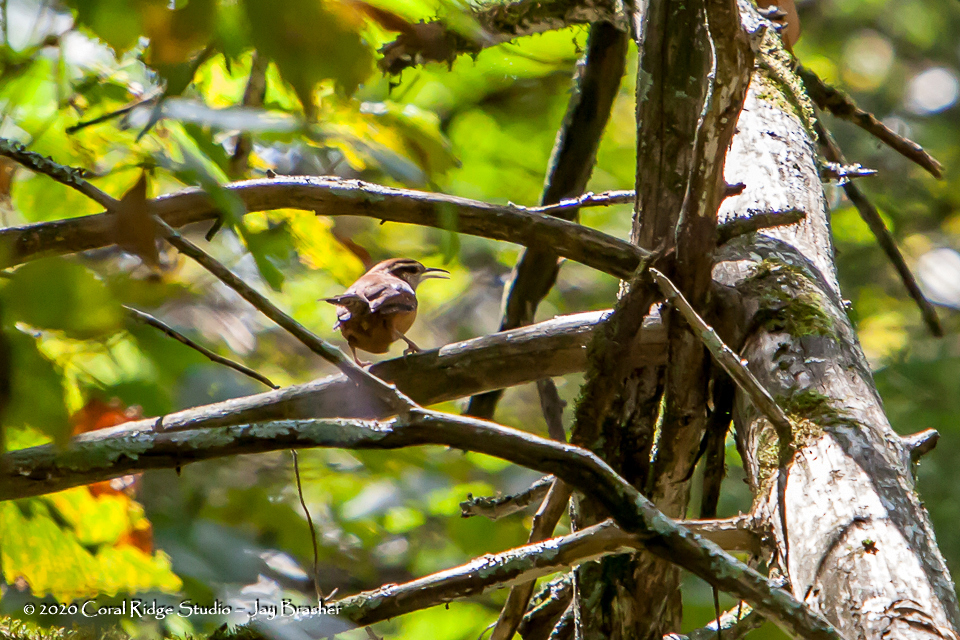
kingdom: Animalia
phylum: Chordata
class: Aves
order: Passeriformes
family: Troglodytidae
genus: Thryothorus
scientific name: Thryothorus ludovicianus
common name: Carolina wren
